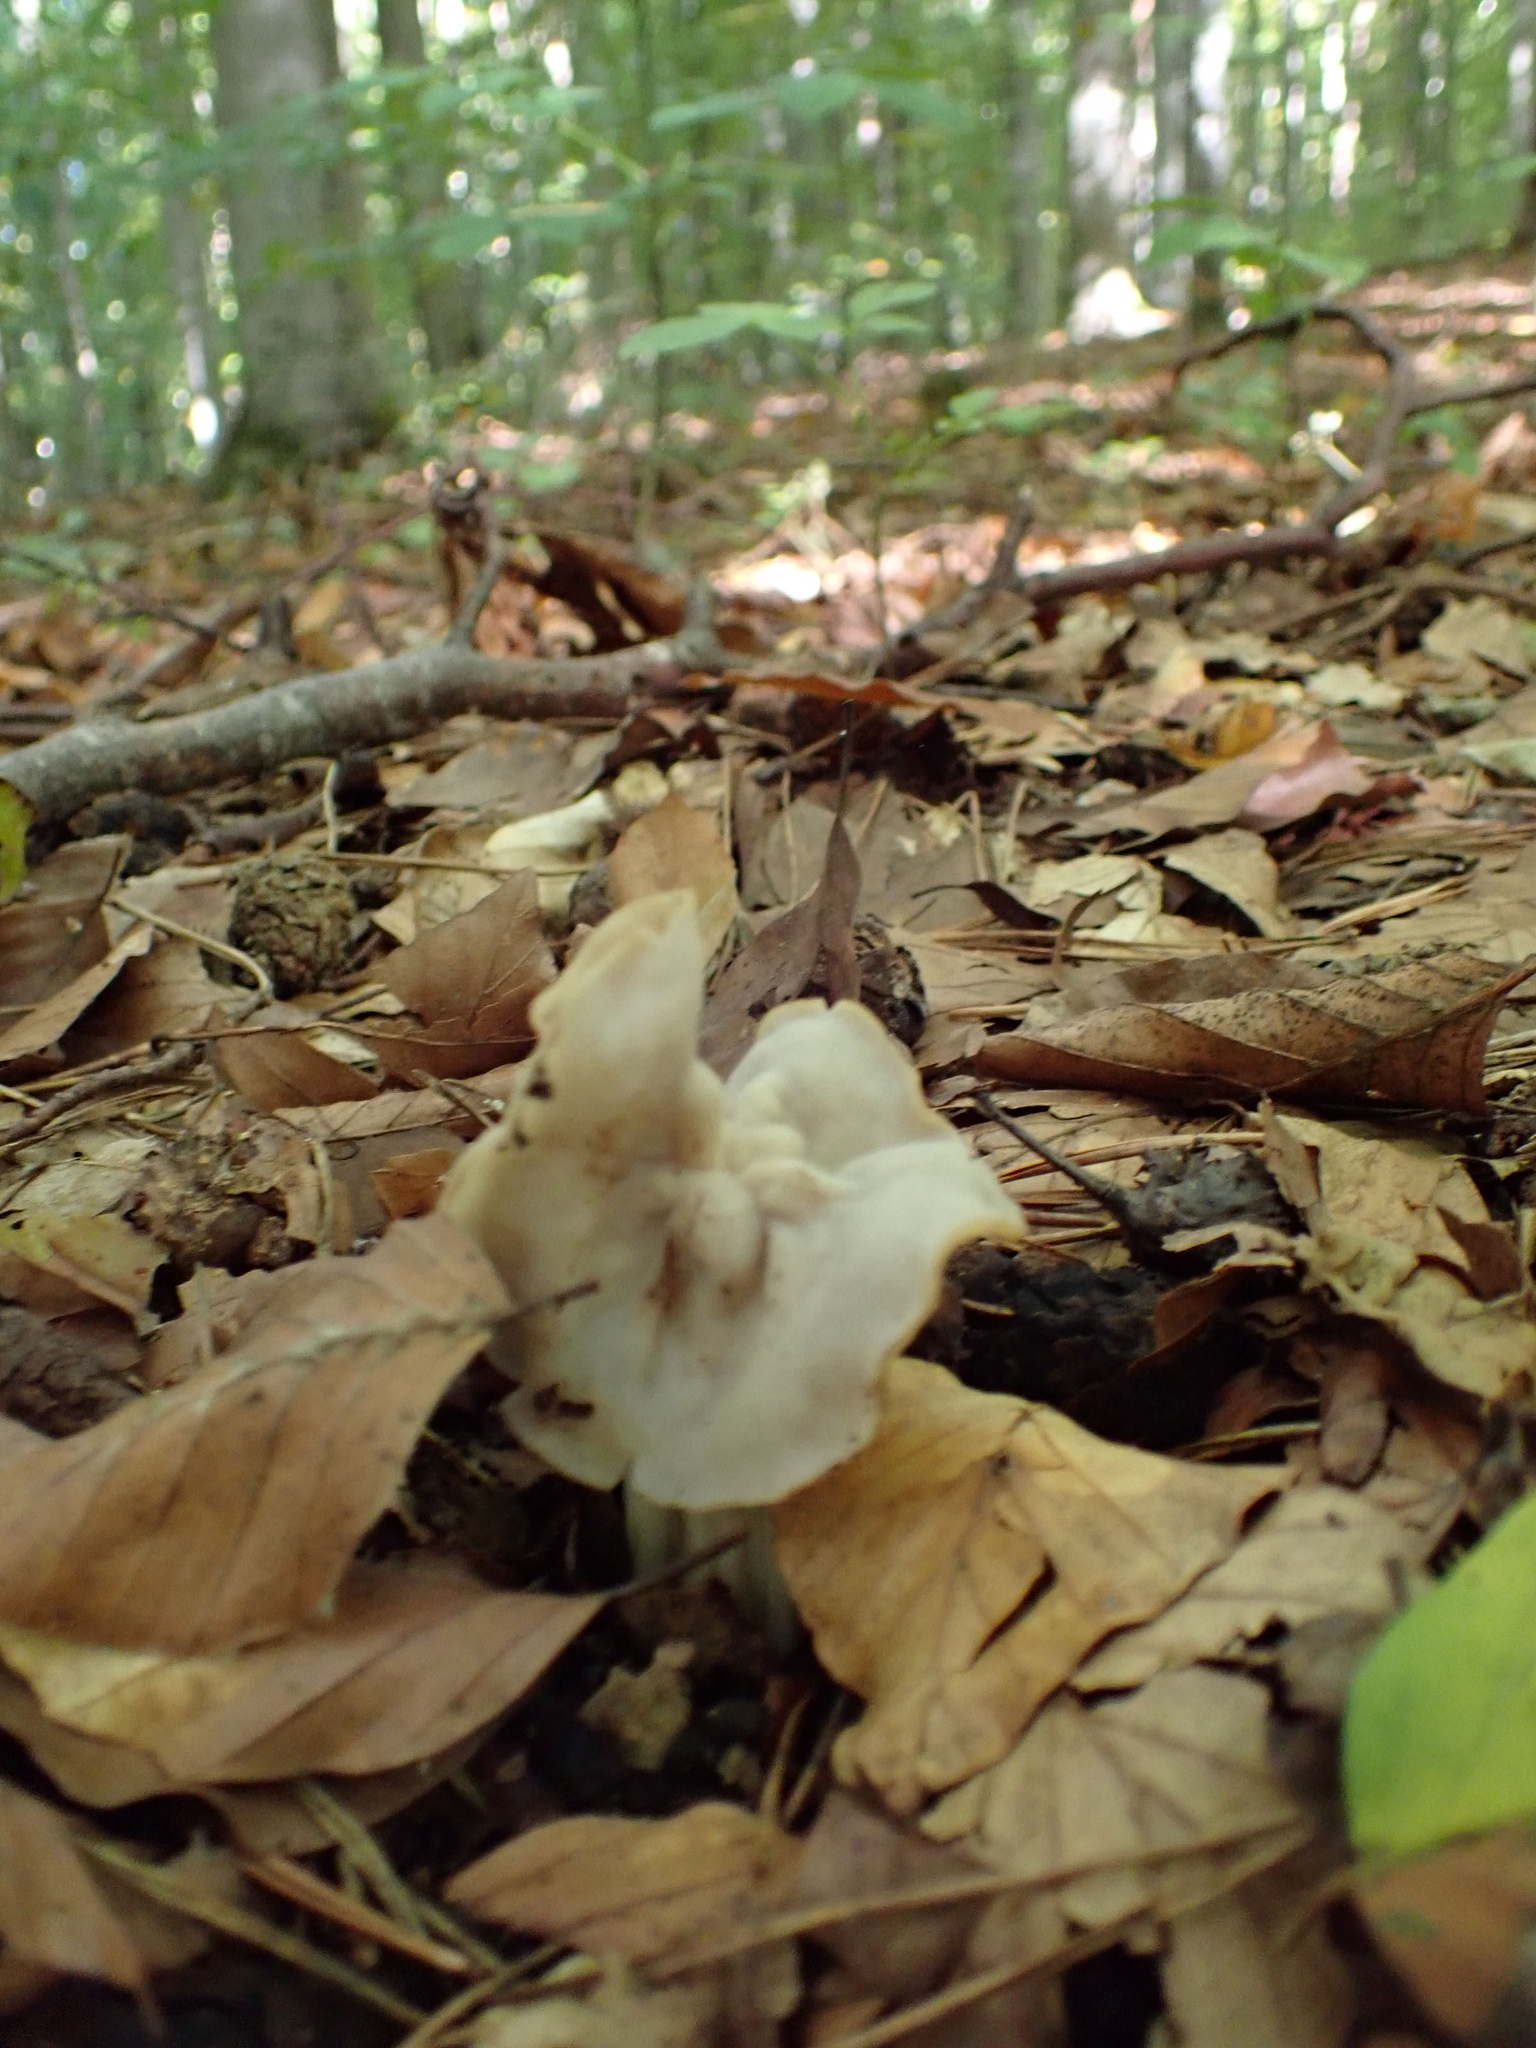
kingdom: Fungi
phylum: Ascomycota
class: Pezizomycetes
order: Pezizales
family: Helvellaceae
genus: Helvella
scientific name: Helvella crispa
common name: White saddle
